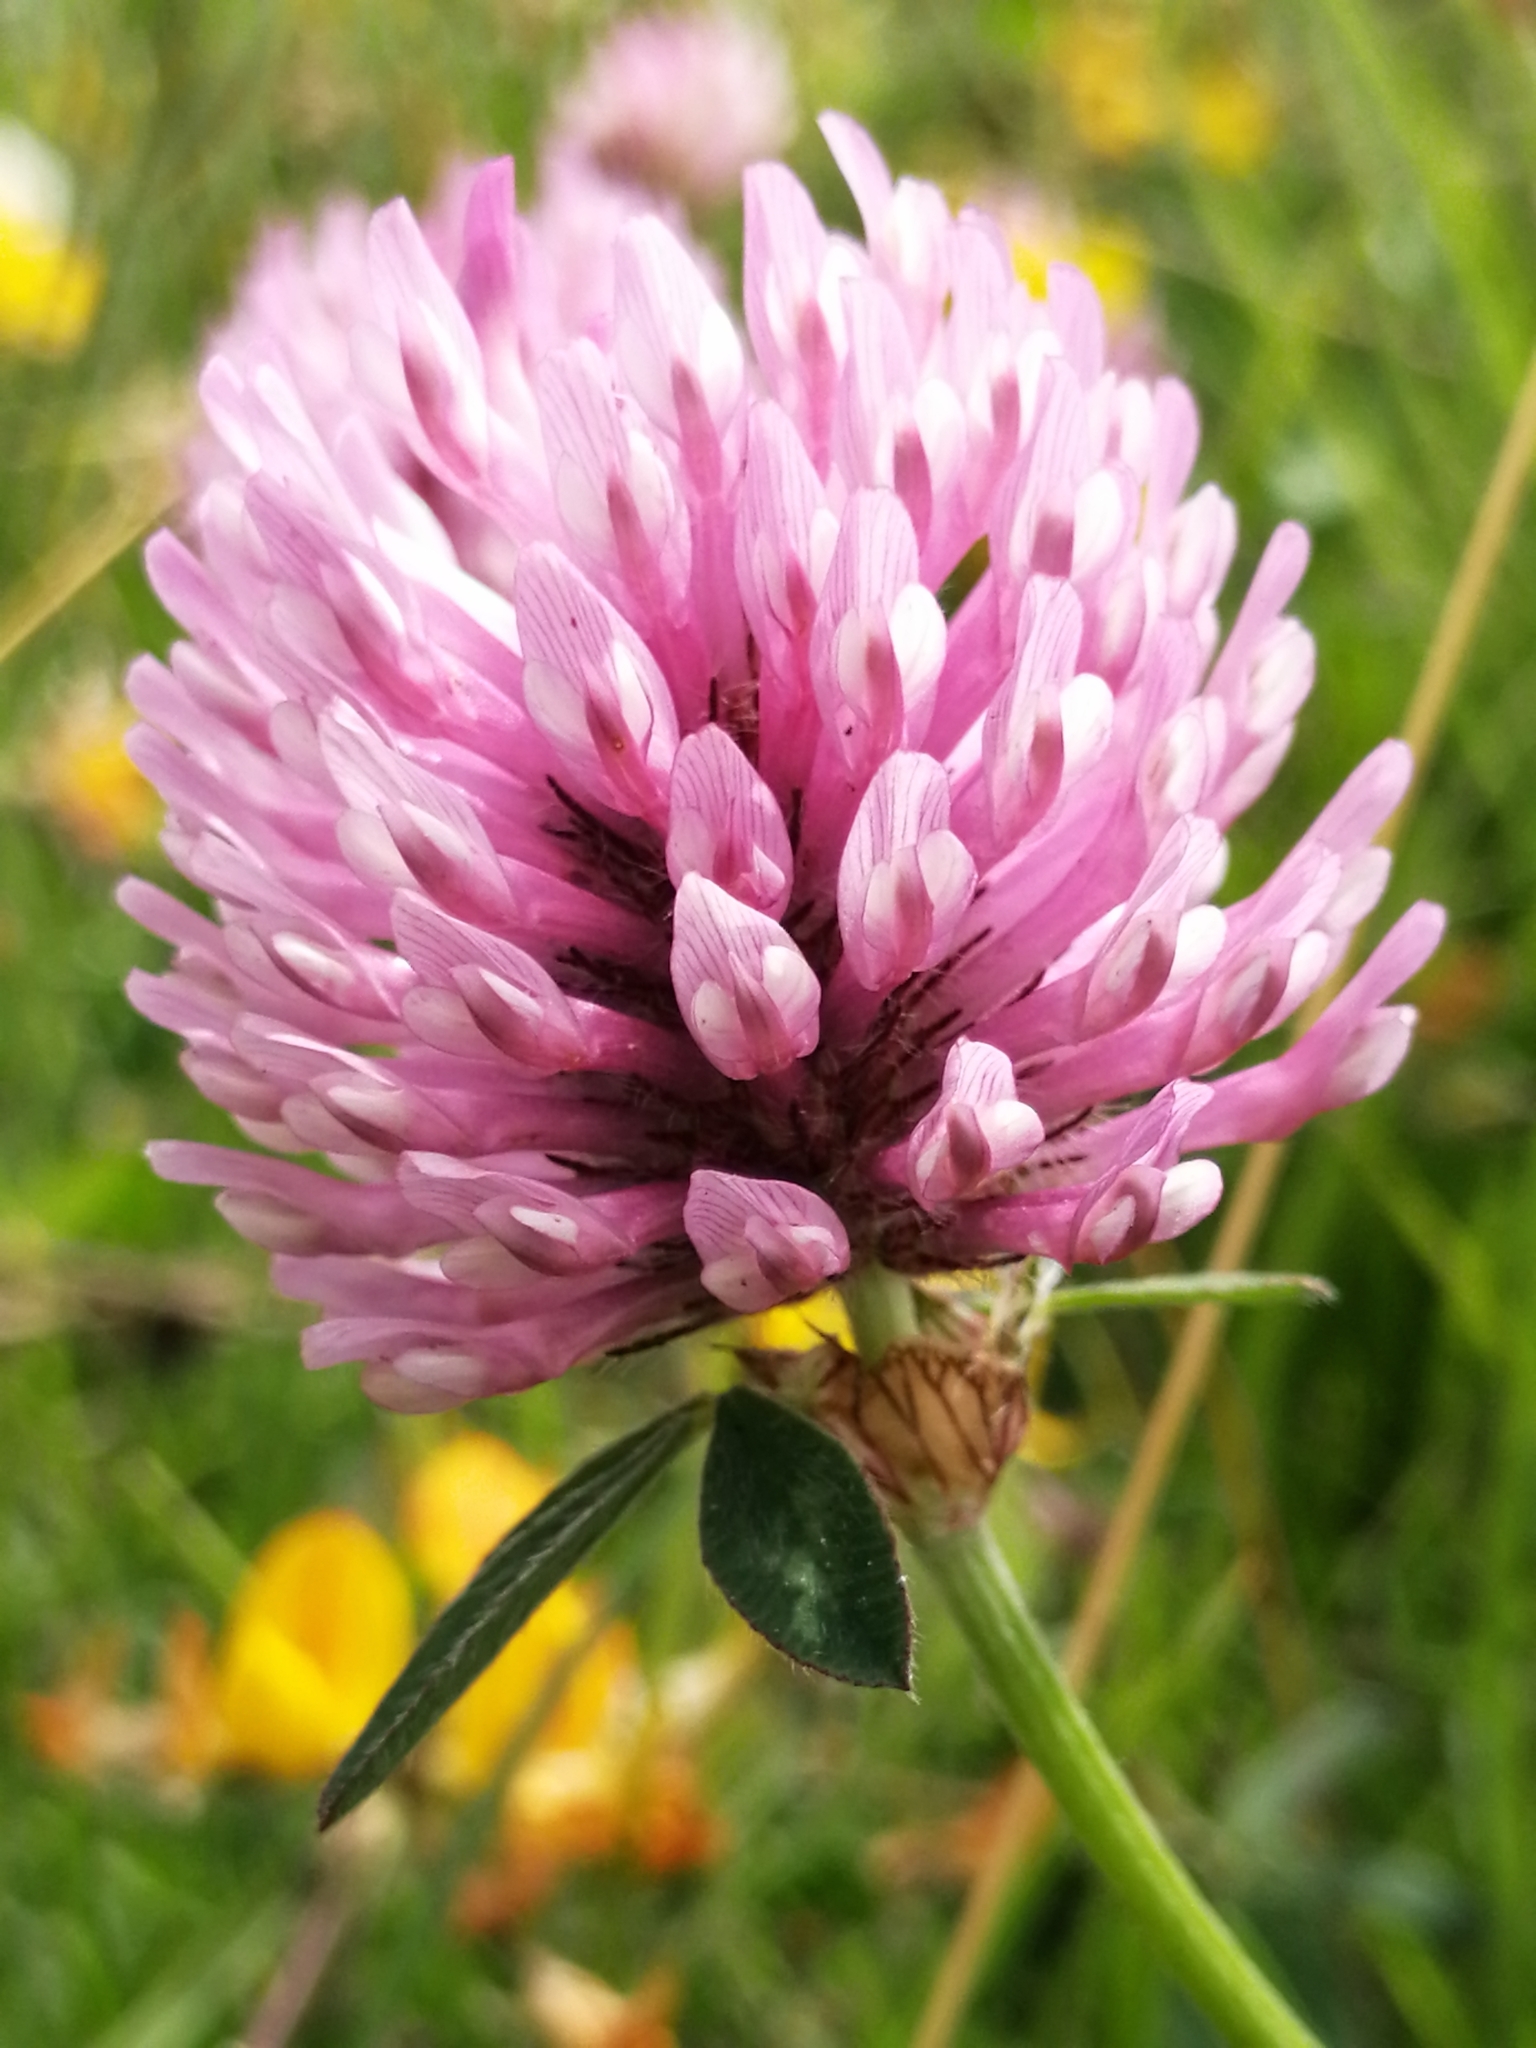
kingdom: Plantae
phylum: Tracheophyta
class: Magnoliopsida
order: Fabales
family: Fabaceae
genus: Trifolium
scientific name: Trifolium pratense
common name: Red clover
